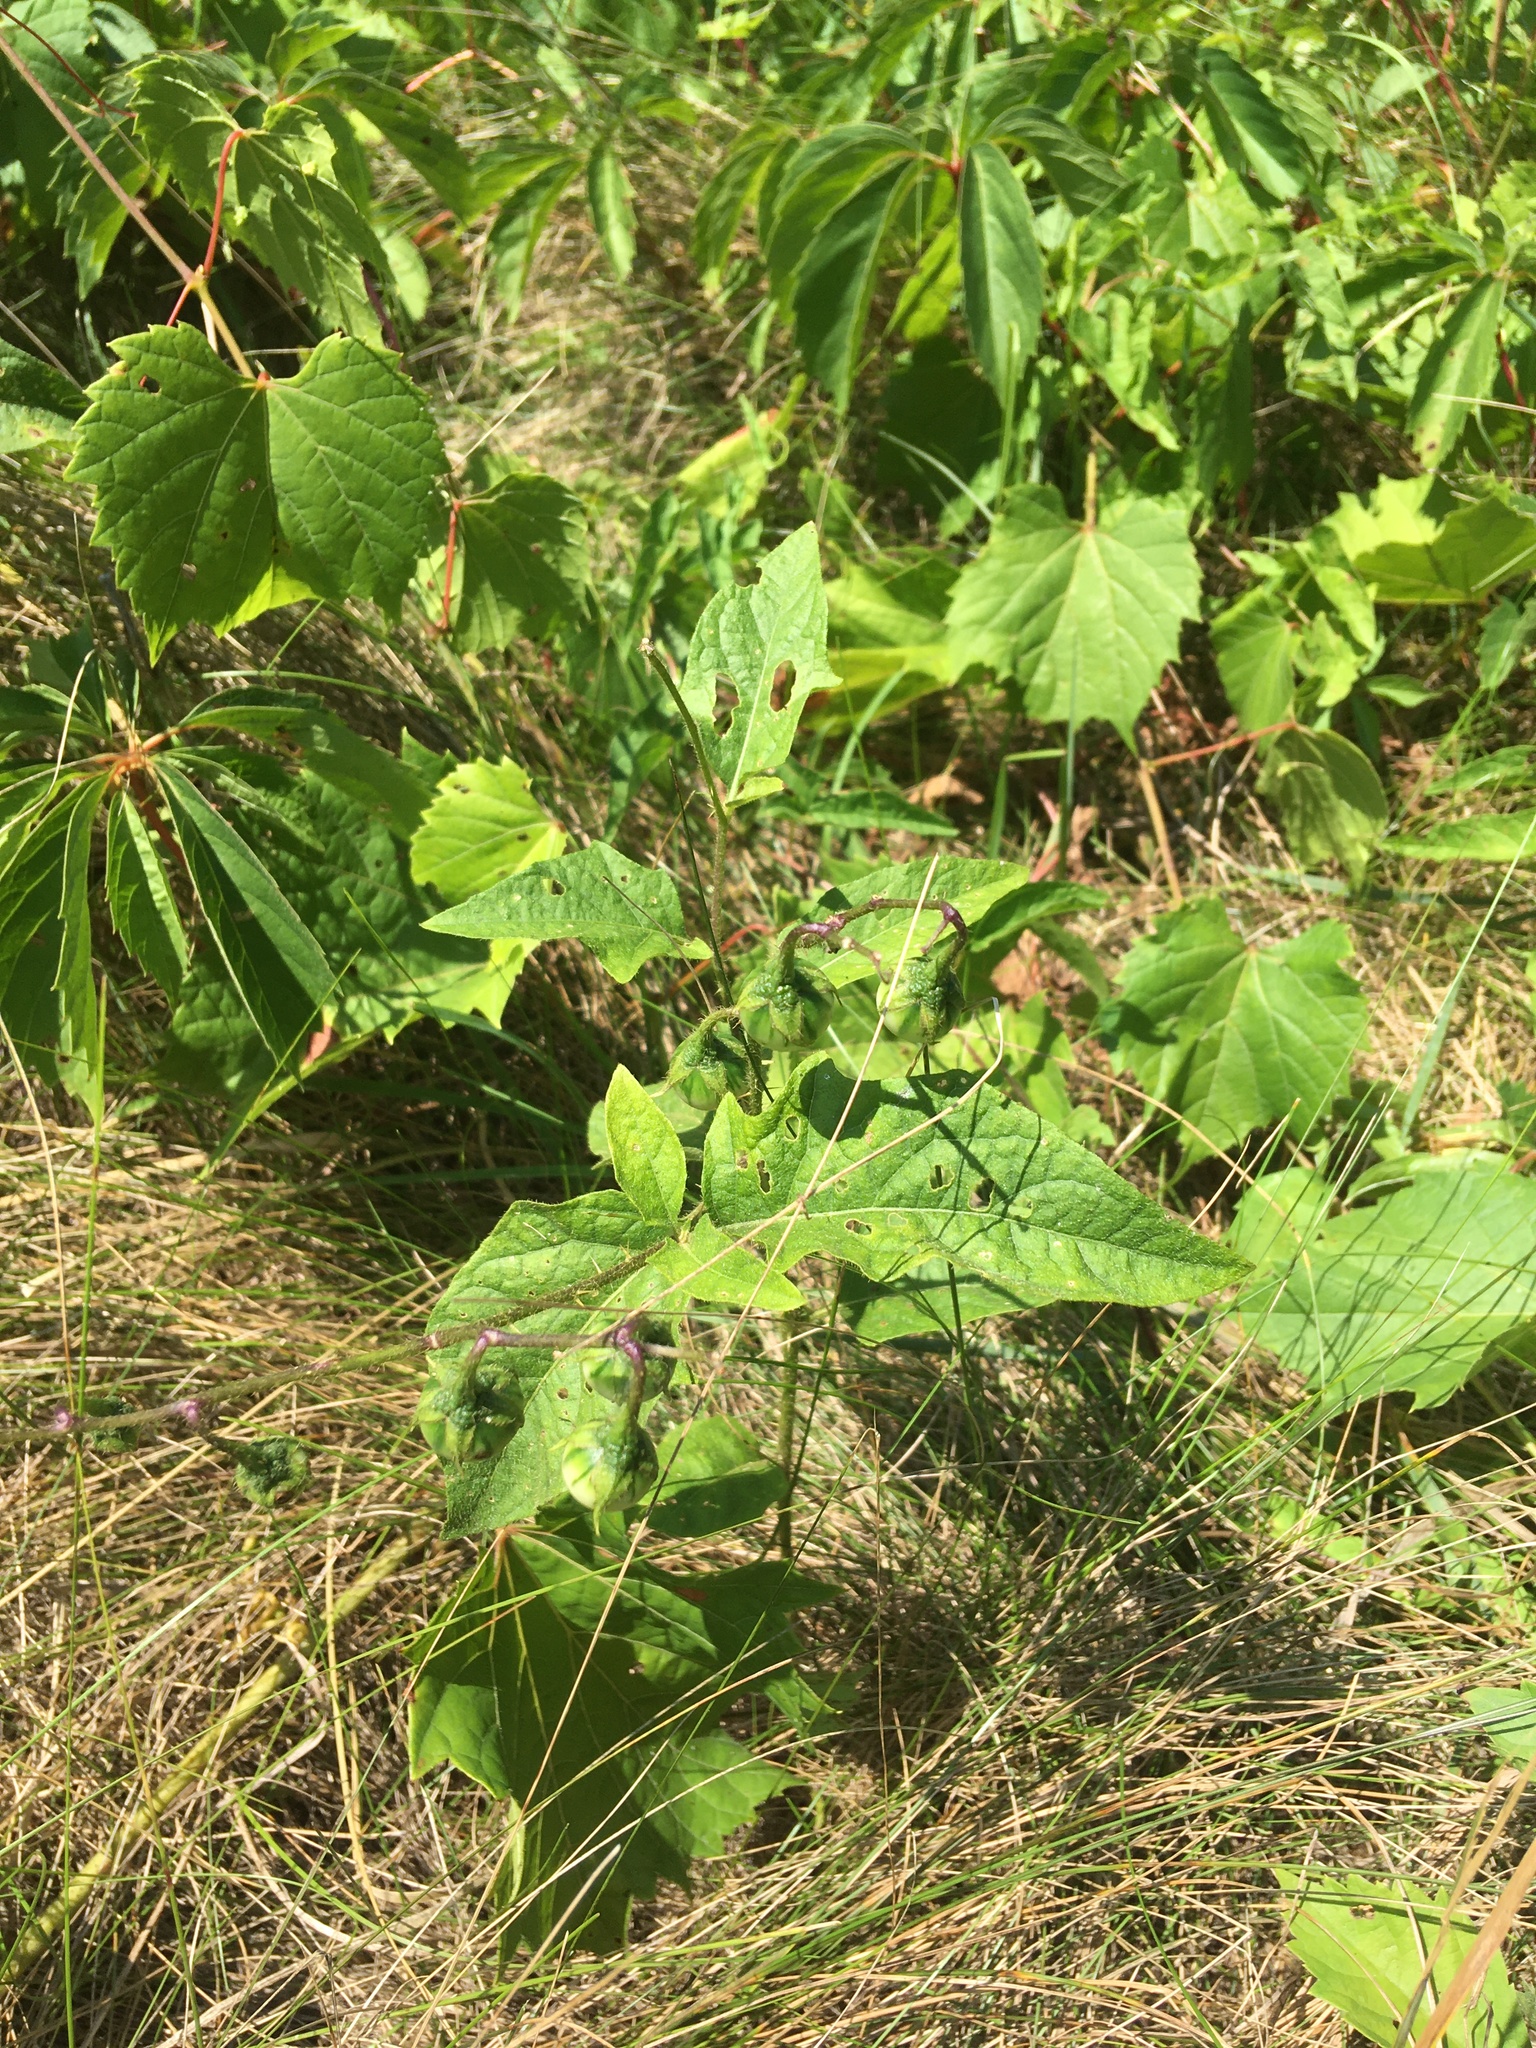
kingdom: Plantae
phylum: Tracheophyta
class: Magnoliopsida
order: Solanales
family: Solanaceae
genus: Solanum
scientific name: Solanum carolinense
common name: Horse-nettle
